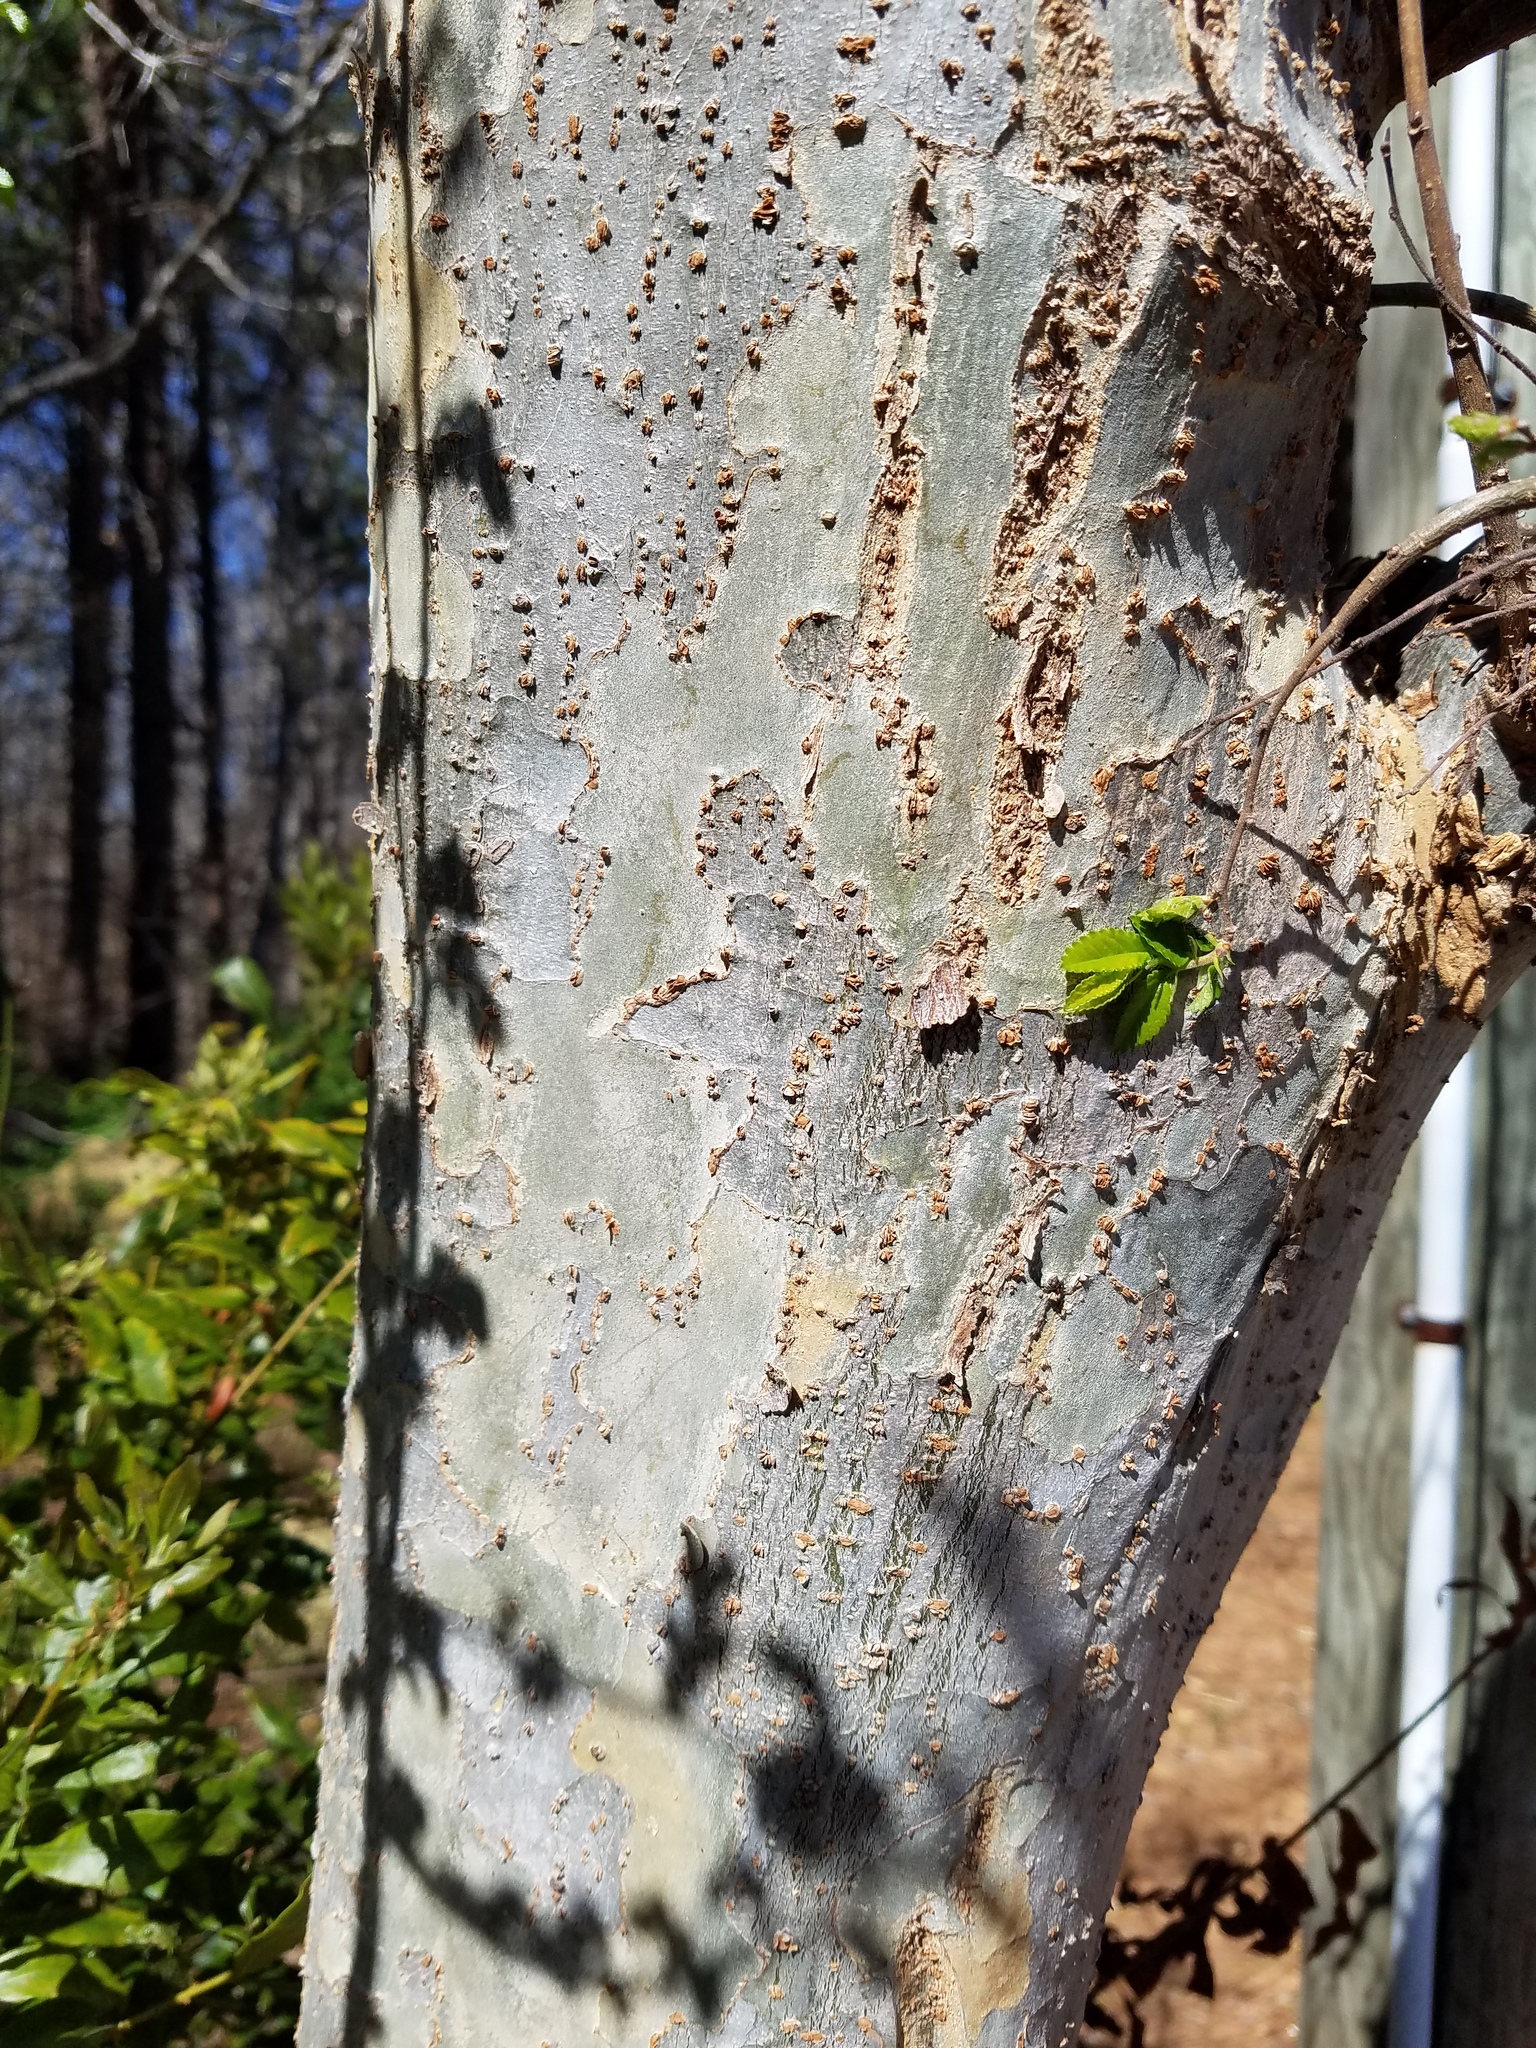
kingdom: Plantae
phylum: Tracheophyta
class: Magnoliopsida
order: Rosales
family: Ulmaceae
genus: Ulmus
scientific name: Ulmus parvifolia
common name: Chinese elm
